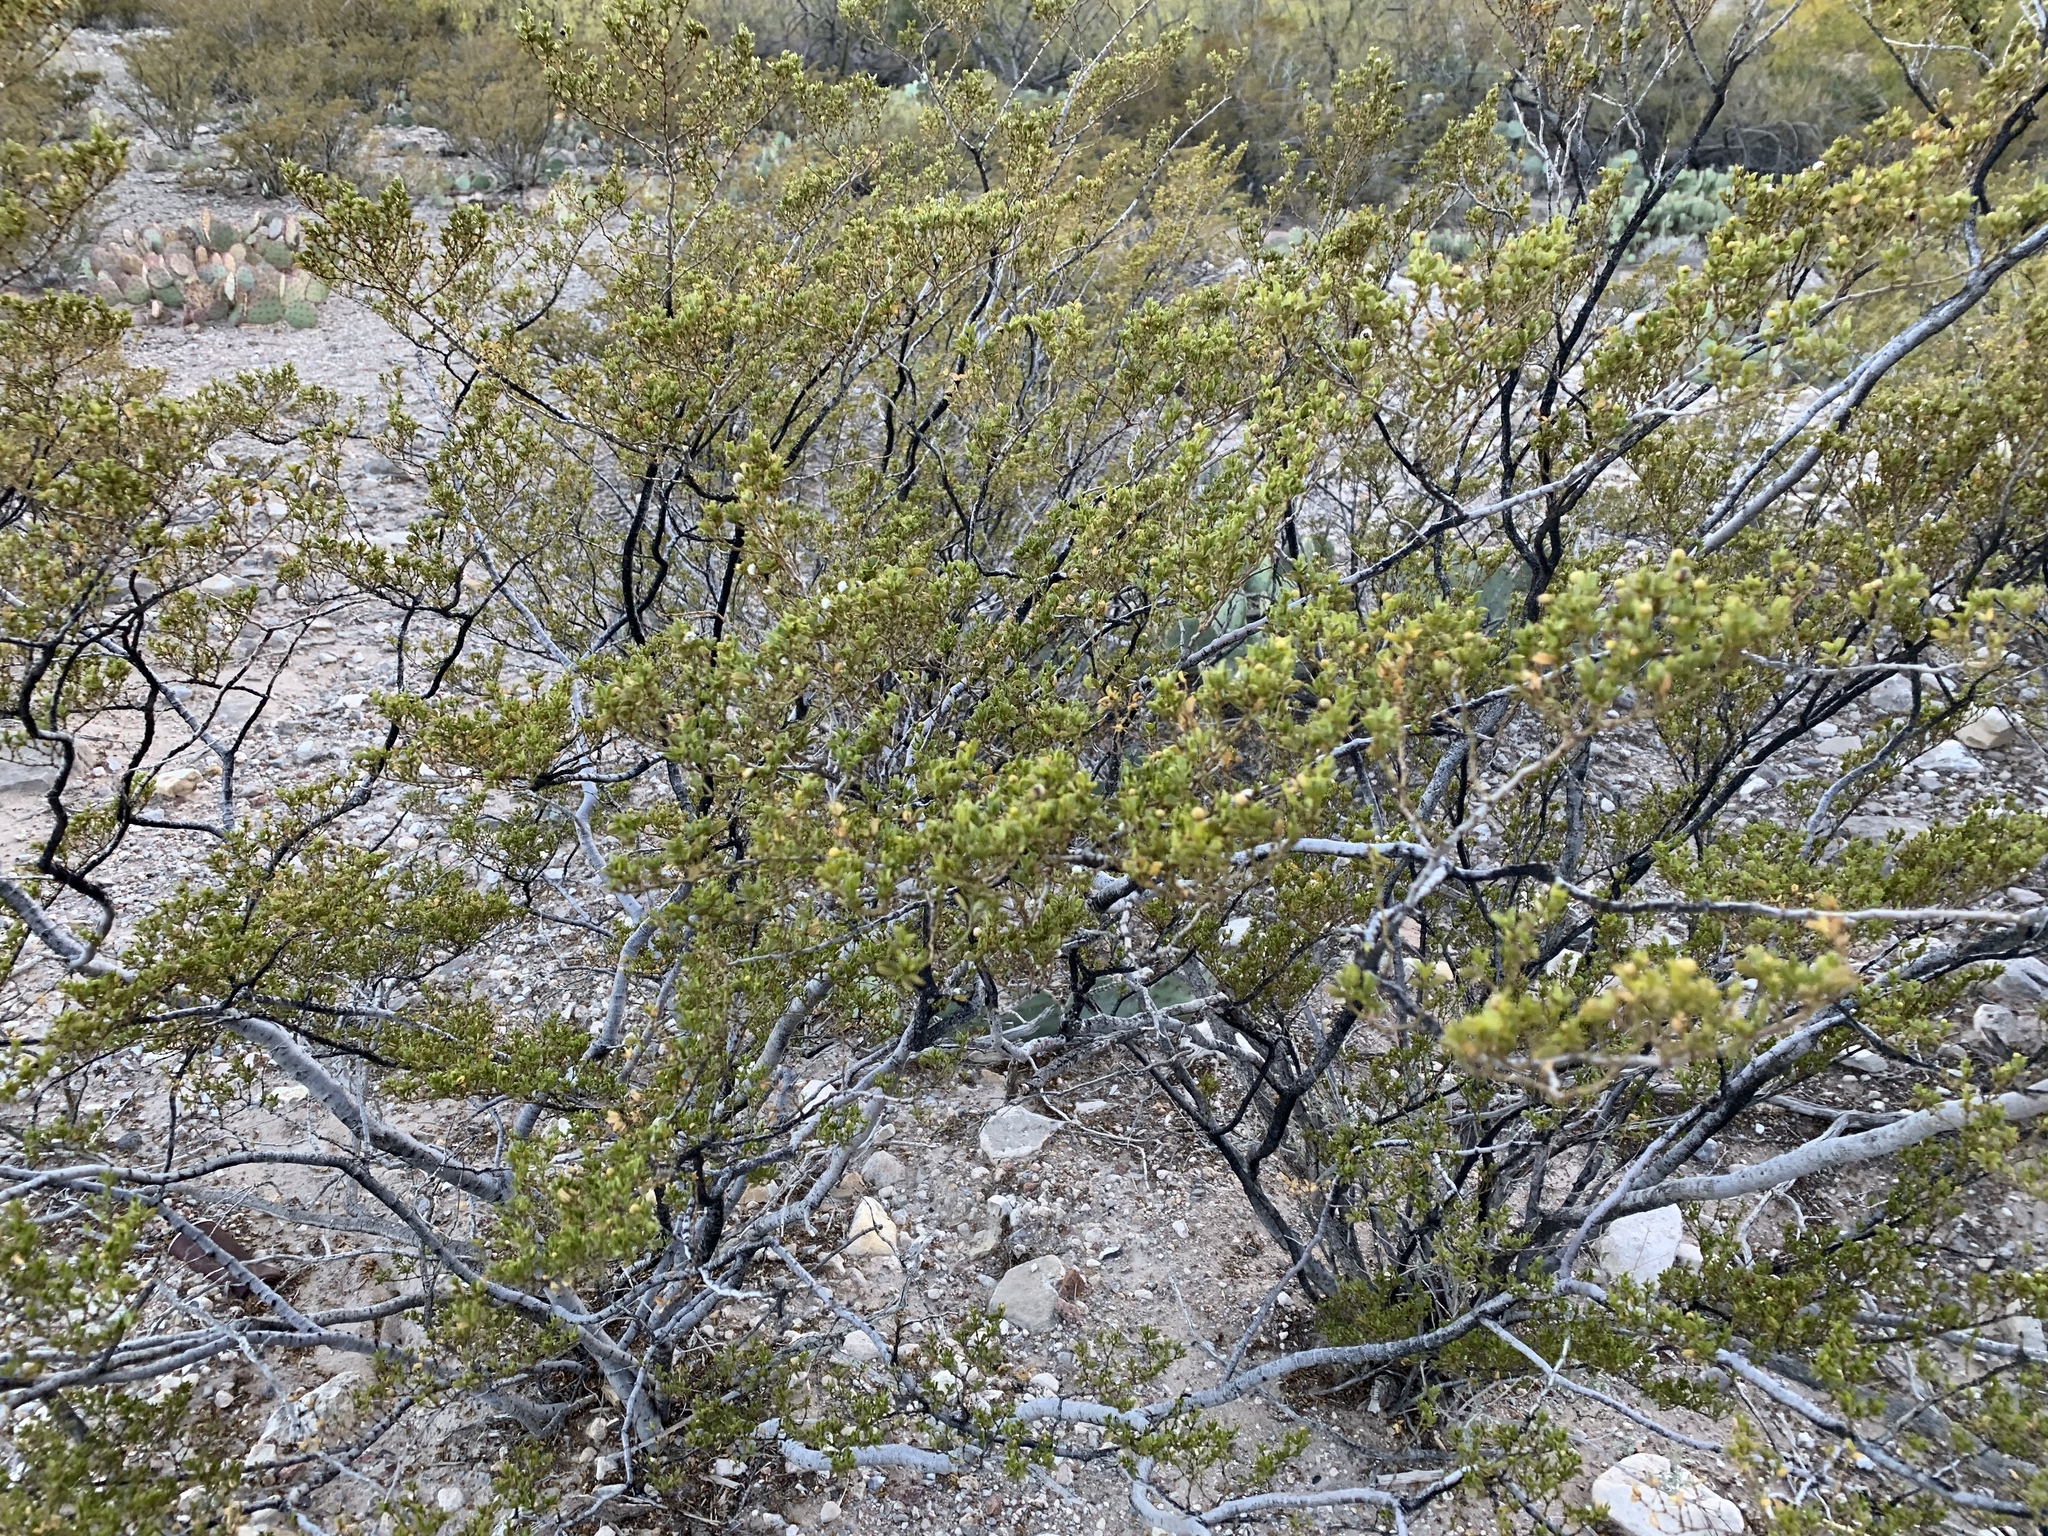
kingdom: Plantae
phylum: Tracheophyta
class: Magnoliopsida
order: Zygophyllales
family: Zygophyllaceae
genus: Larrea
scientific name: Larrea tridentata
